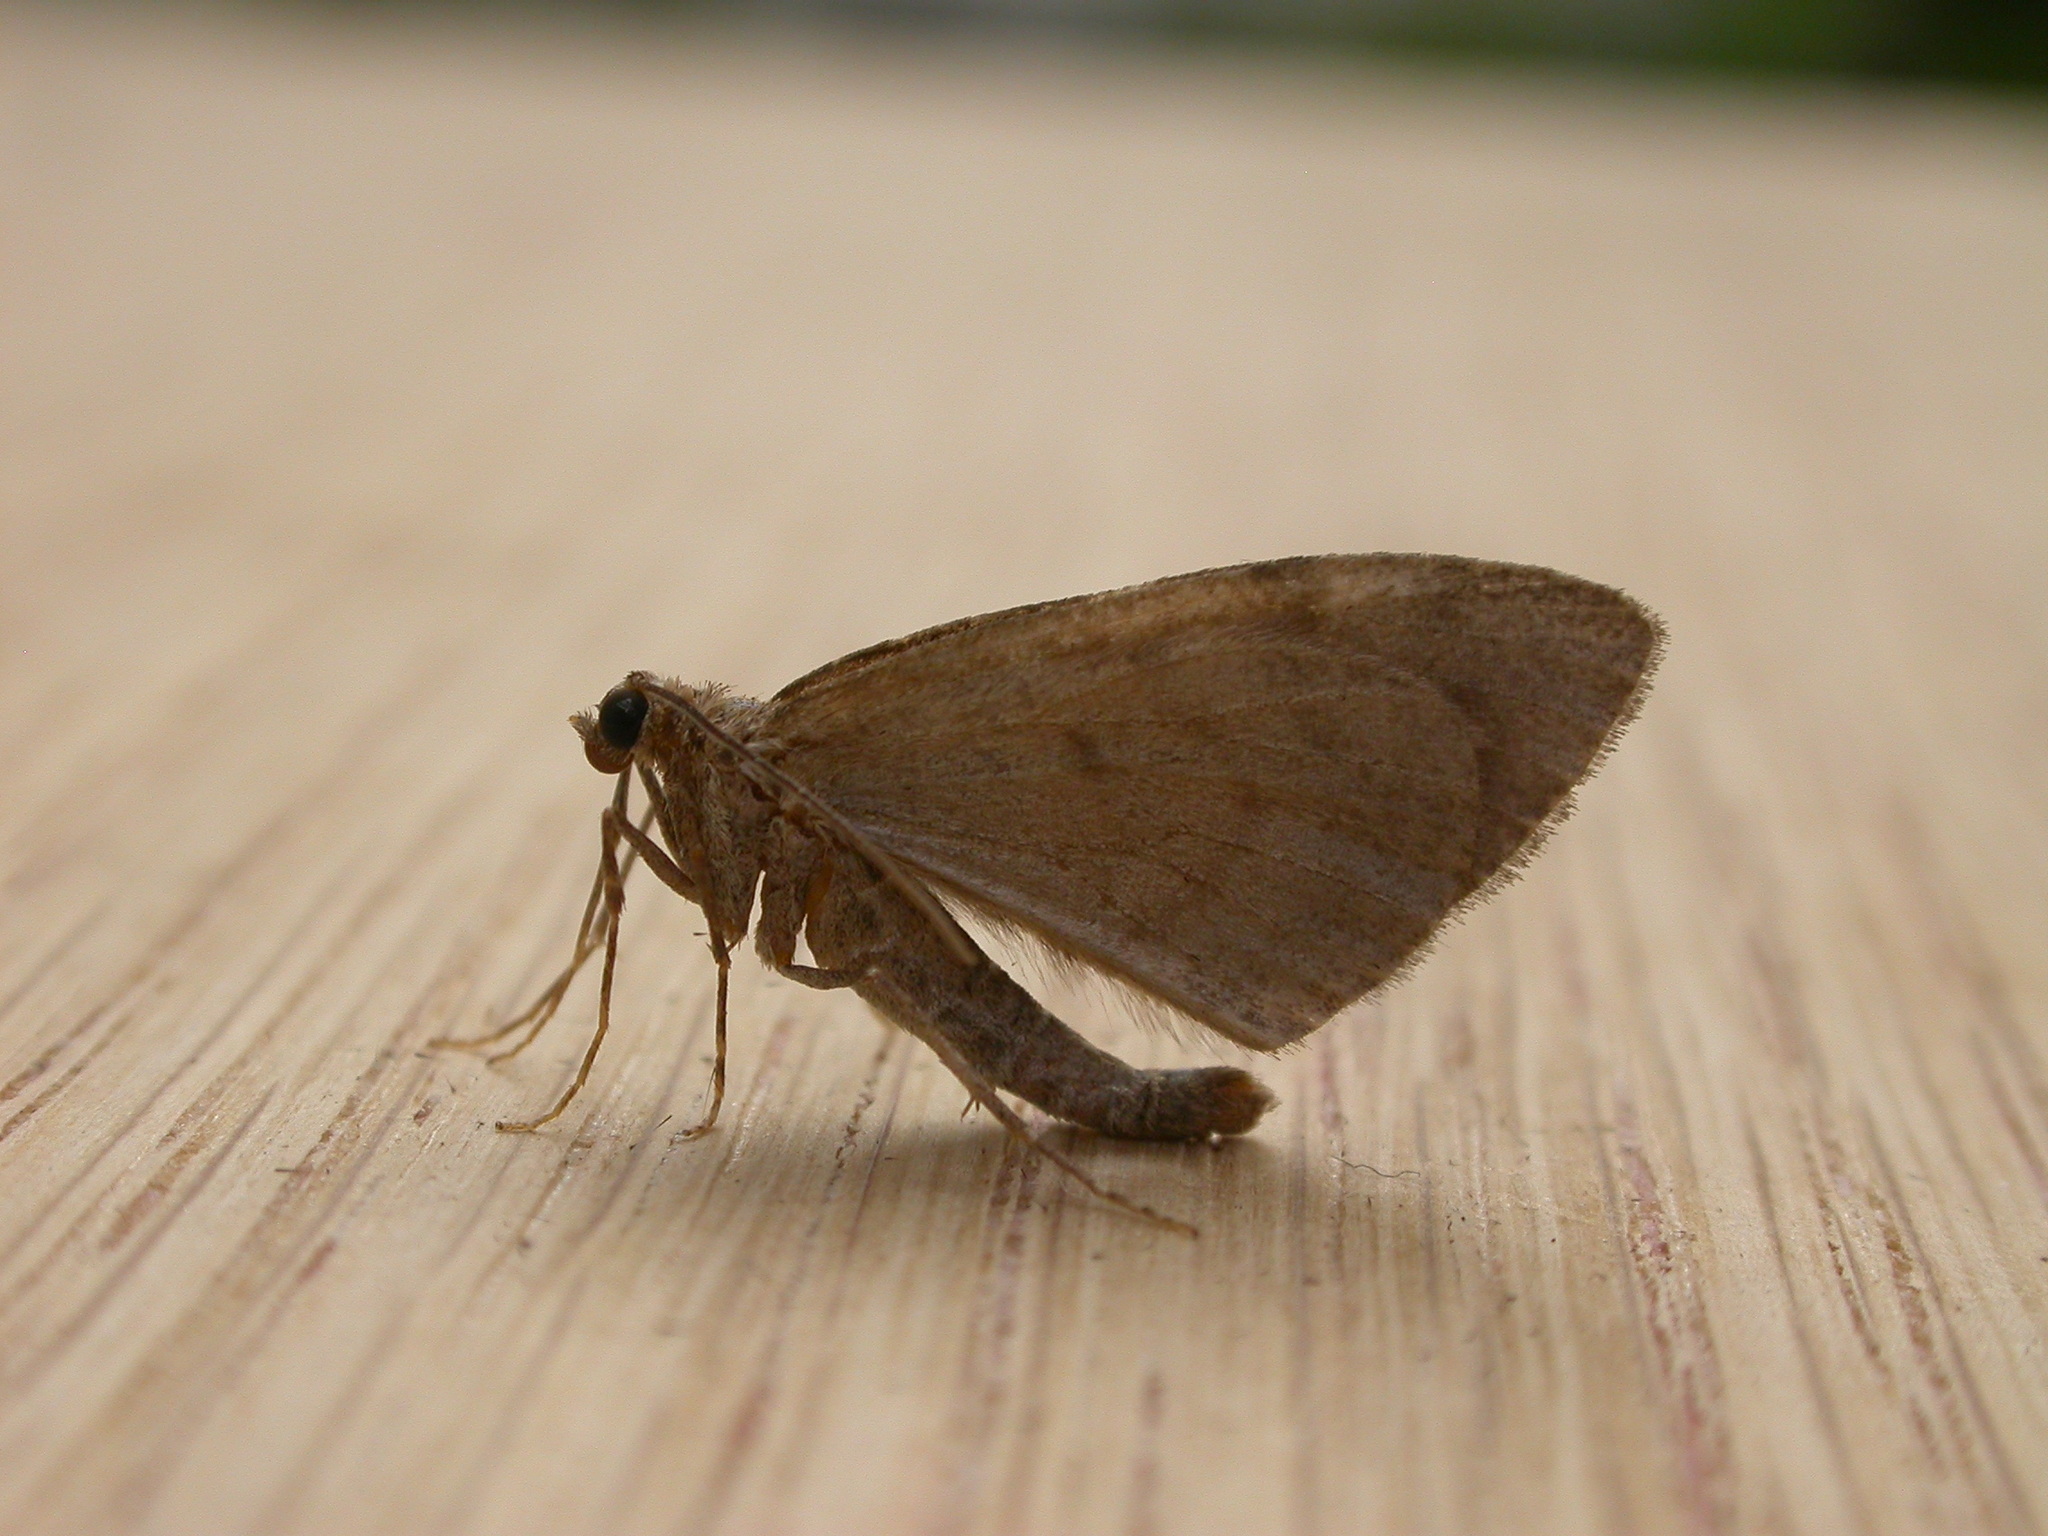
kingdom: Animalia
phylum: Arthropoda
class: Insecta
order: Lepidoptera
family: Geometridae
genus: Thera
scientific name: Thera obeliscata
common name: Grey pine carpet
